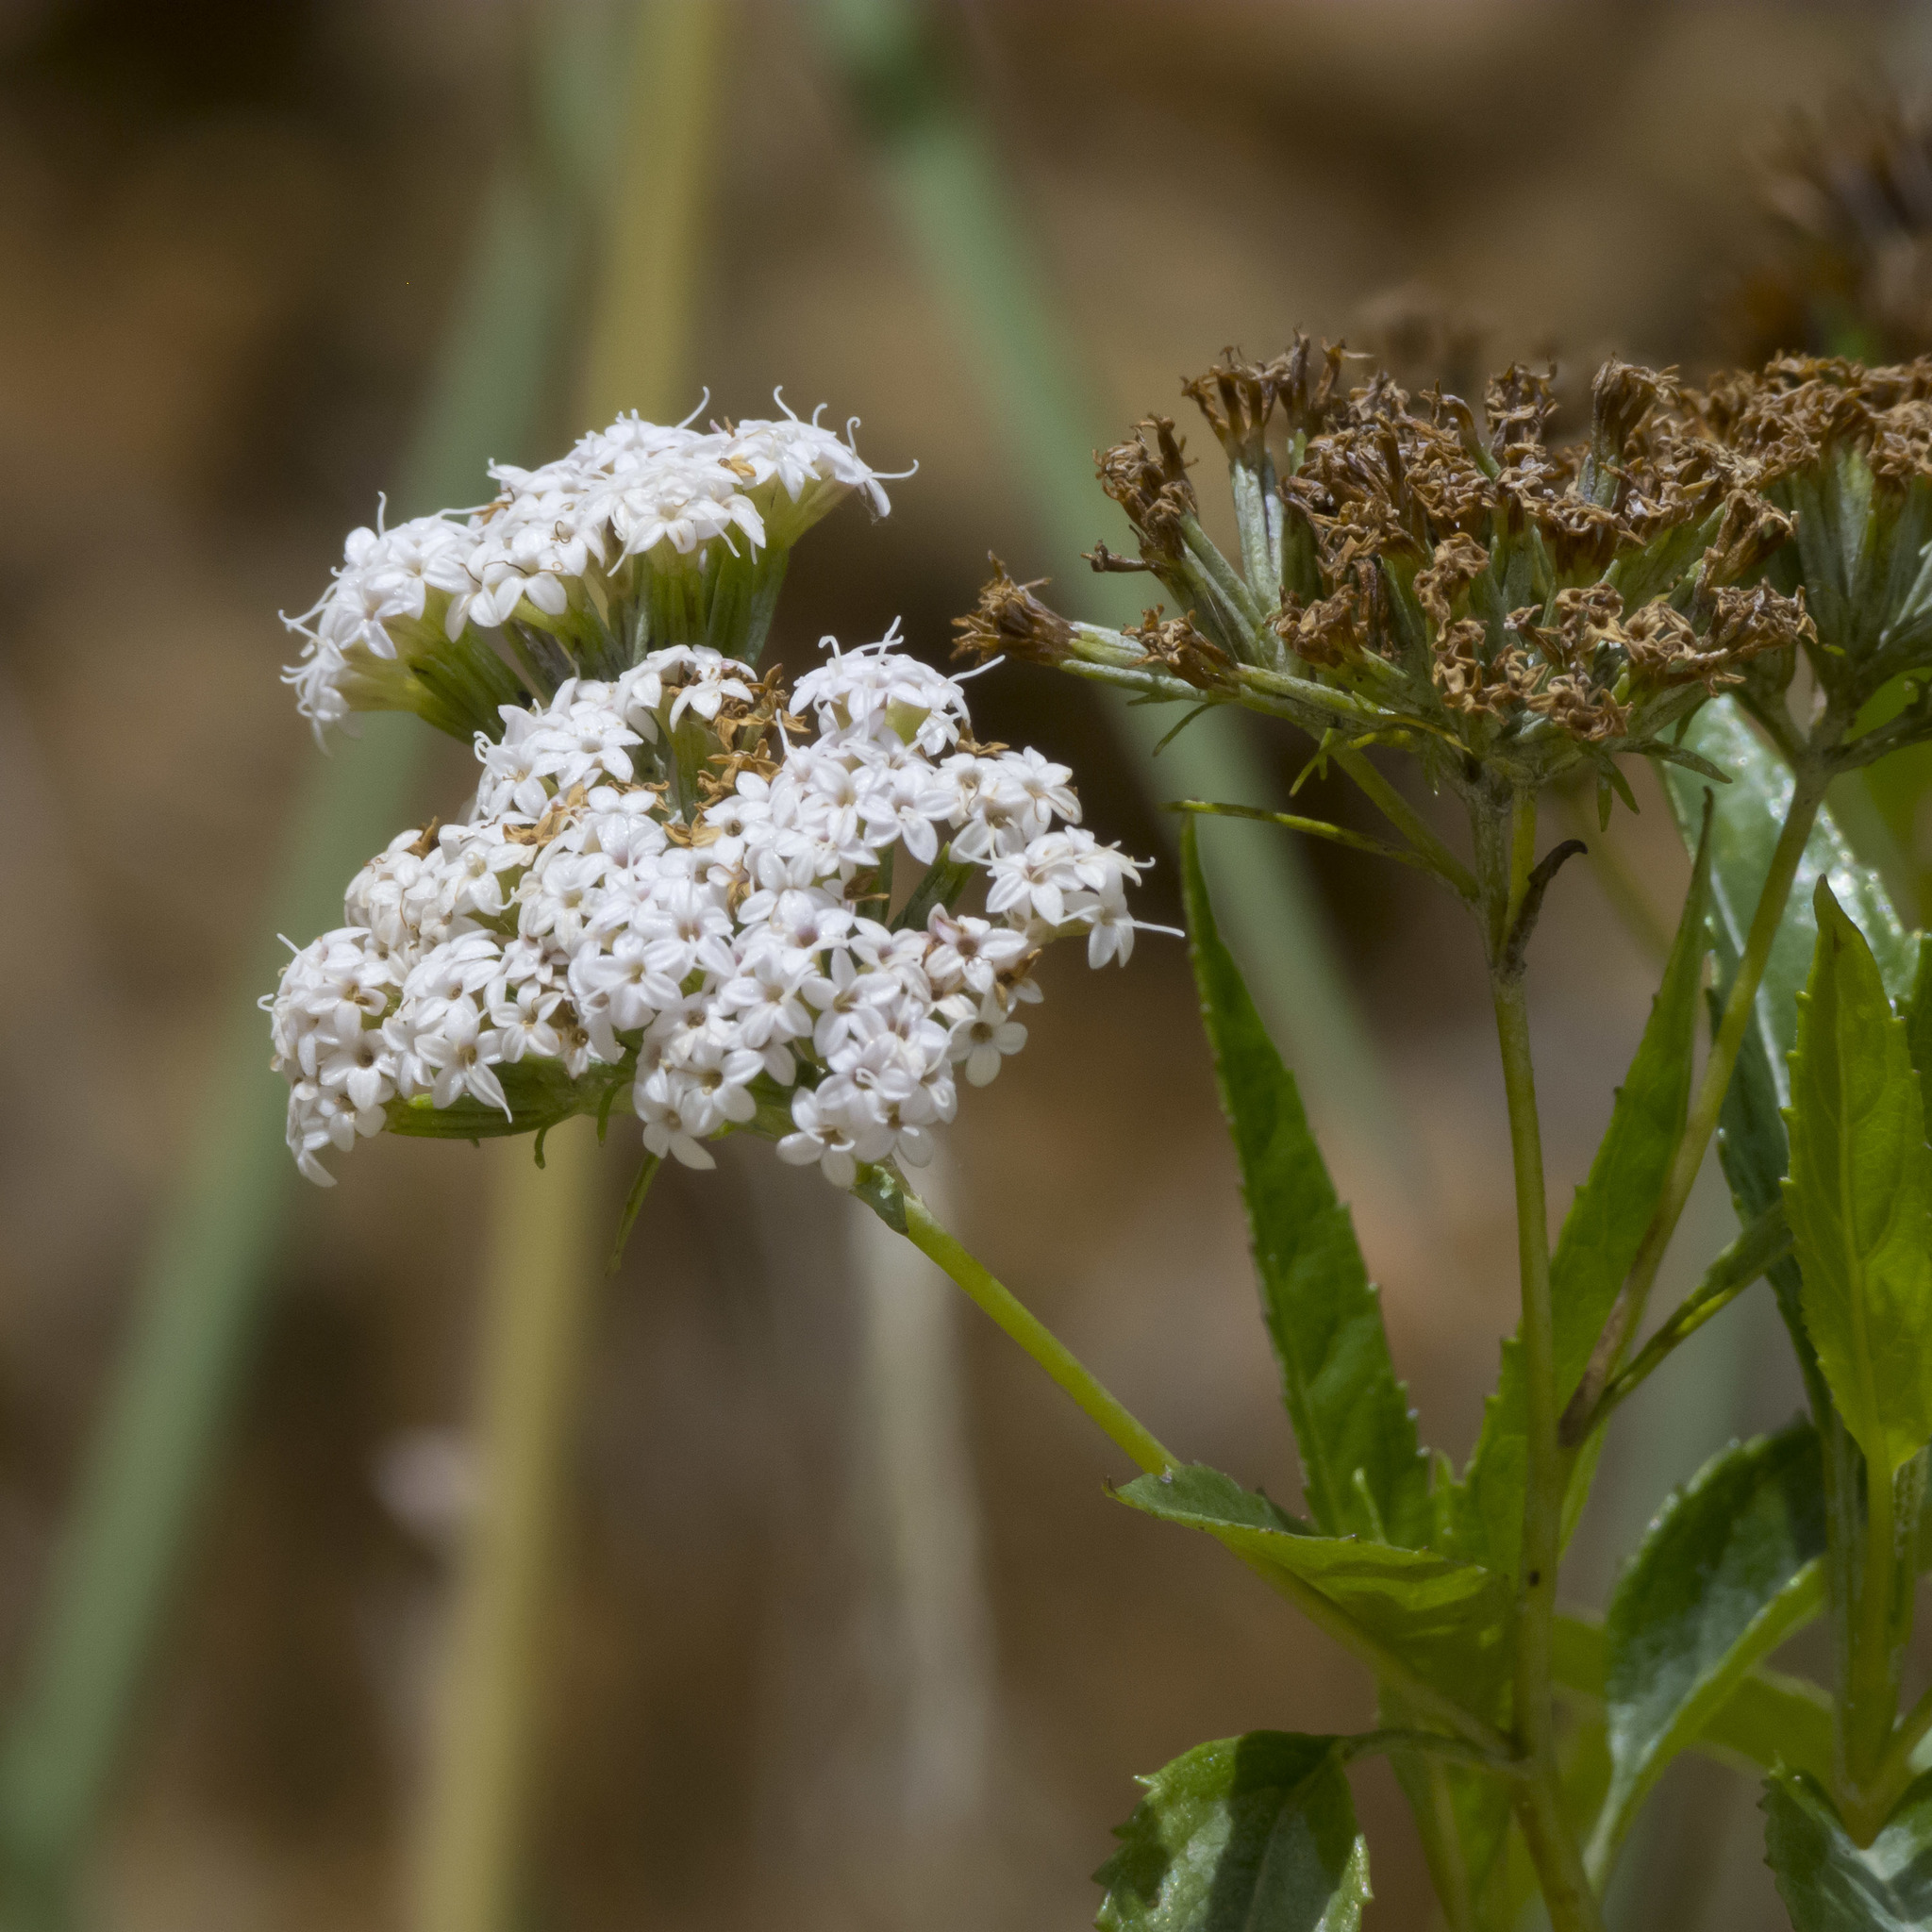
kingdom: Plantae
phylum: Tracheophyta
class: Magnoliopsida
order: Asterales
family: Asteraceae
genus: Stevia
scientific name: Stevia lucida
